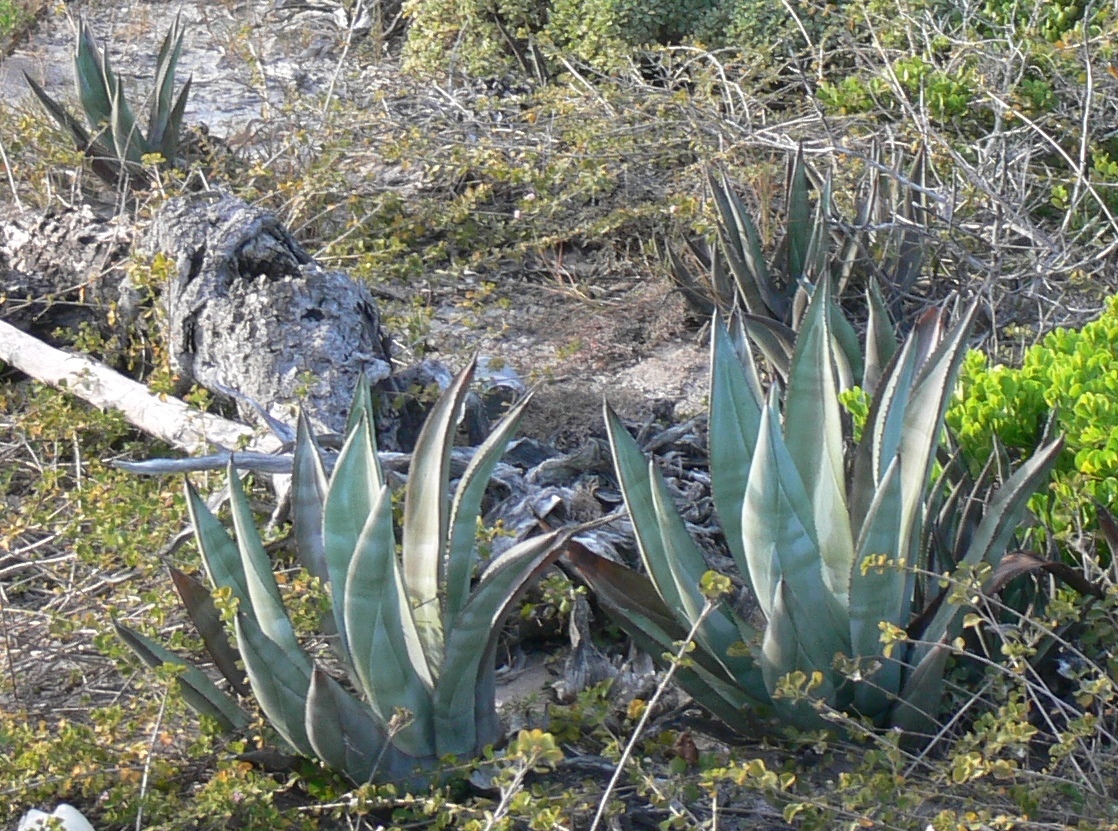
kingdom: Plantae
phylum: Tracheophyta
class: Liliopsida
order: Asparagales
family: Asparagaceae
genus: Agave
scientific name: Agave nashii
